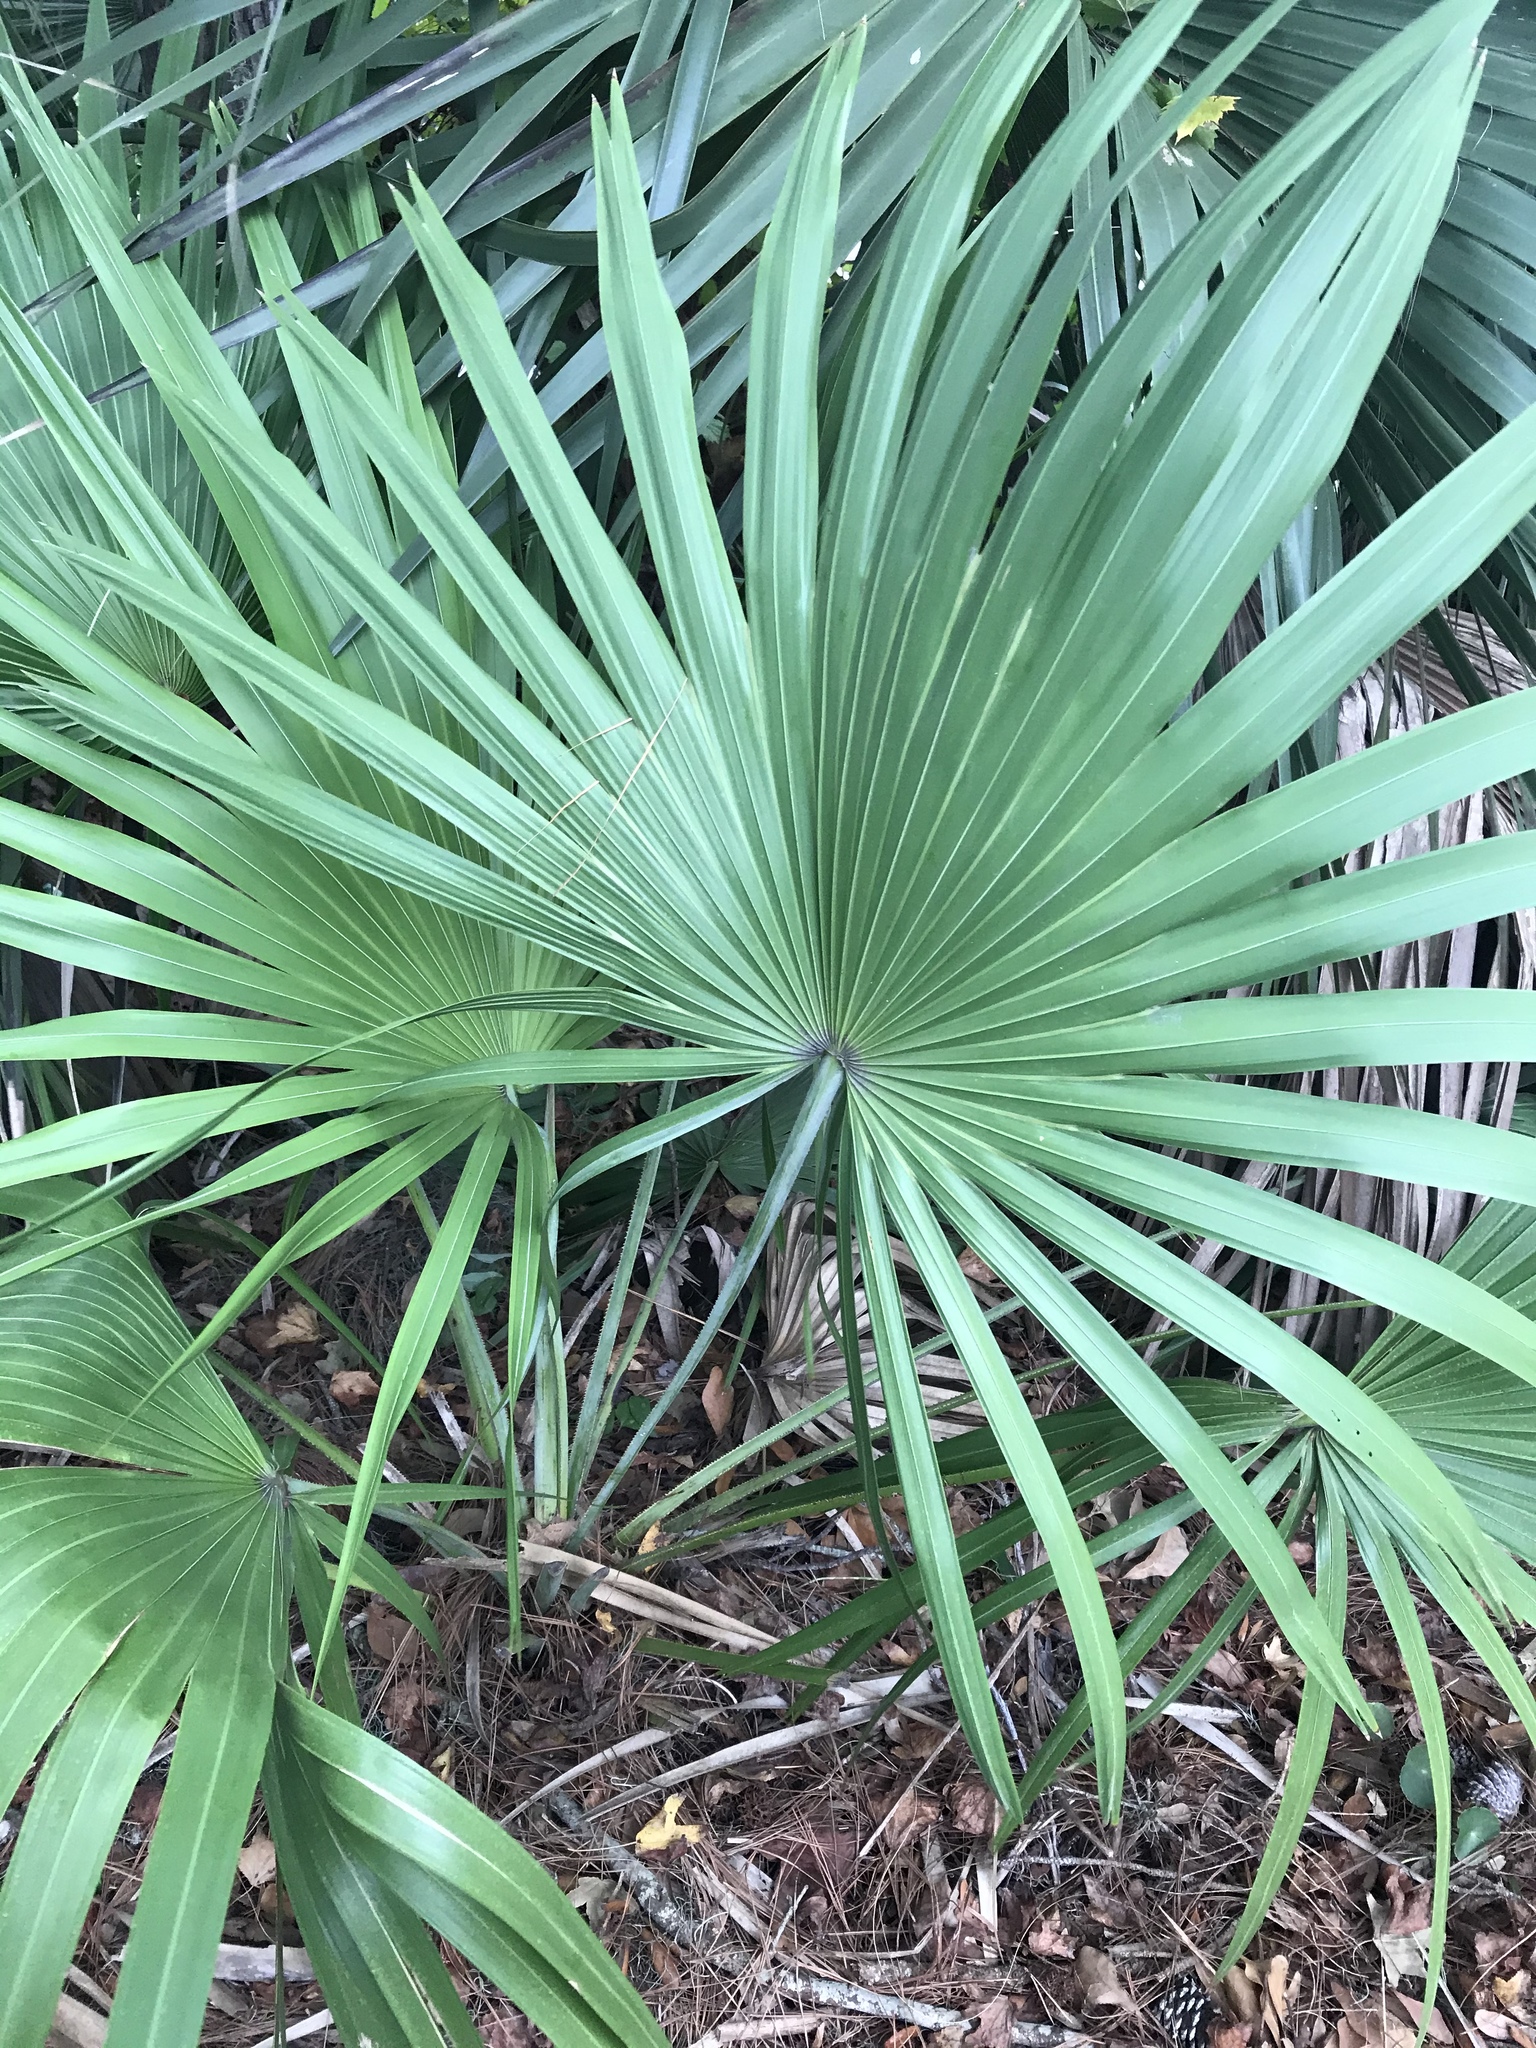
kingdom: Plantae
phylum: Tracheophyta
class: Liliopsida
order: Arecales
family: Arecaceae
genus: Serenoa
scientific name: Serenoa repens
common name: Saw-palmetto
